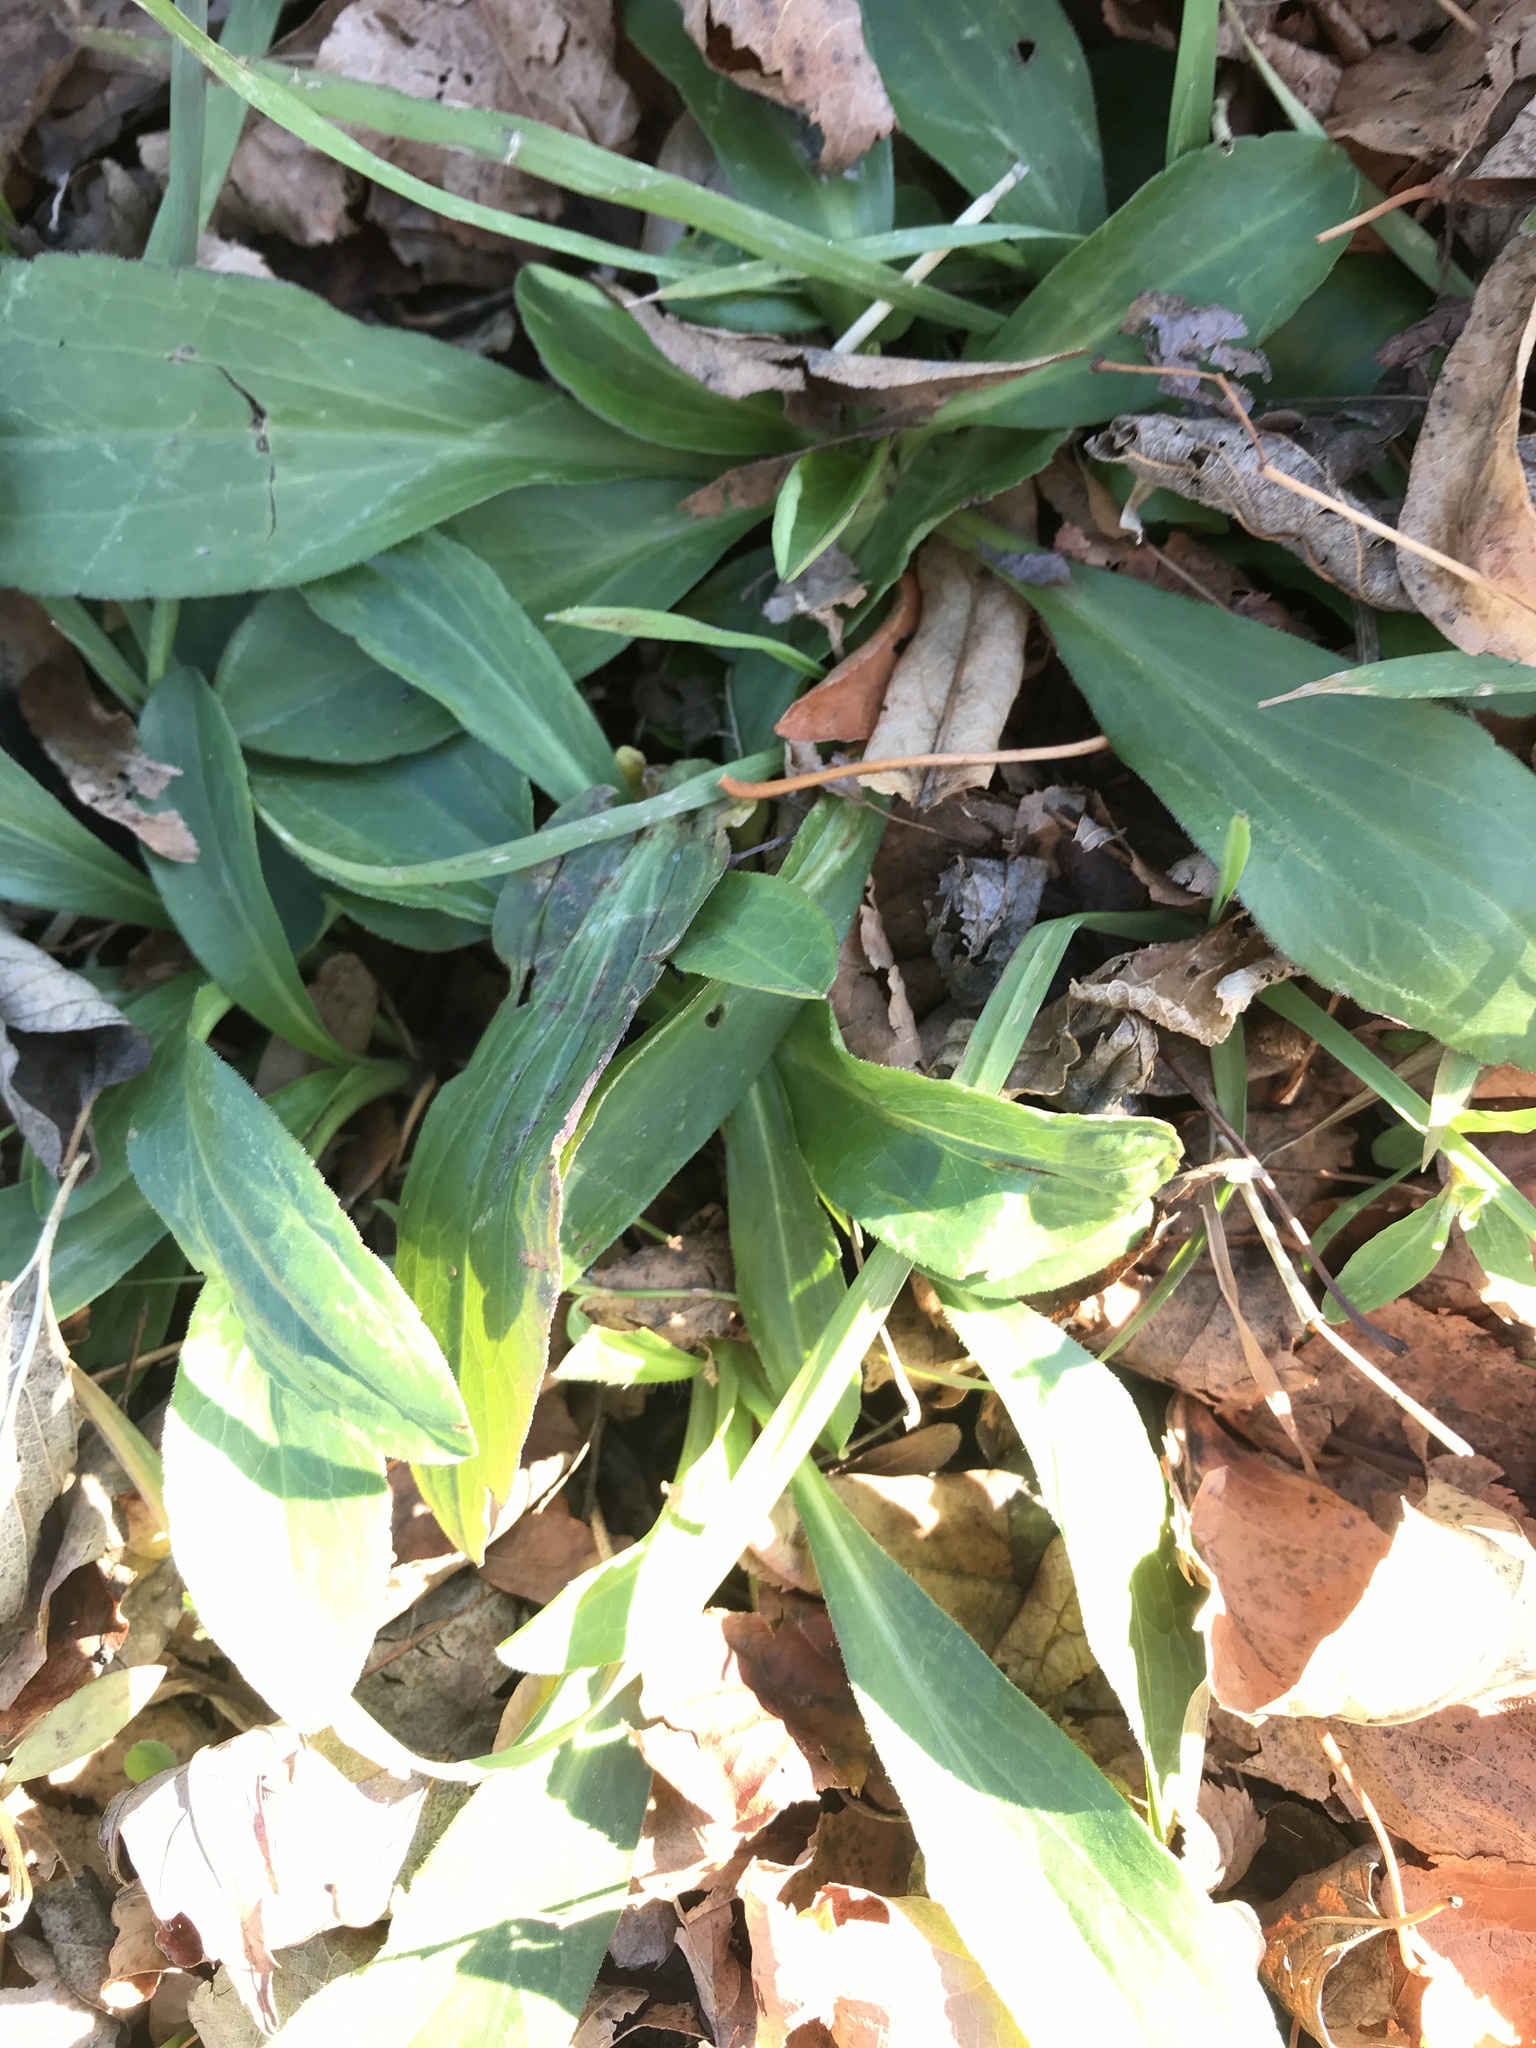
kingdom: Plantae
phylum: Tracheophyta
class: Magnoliopsida
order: Lamiales
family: Plantaginaceae
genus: Plantago
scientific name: Plantago lanceolata
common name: Ribwort plantain
